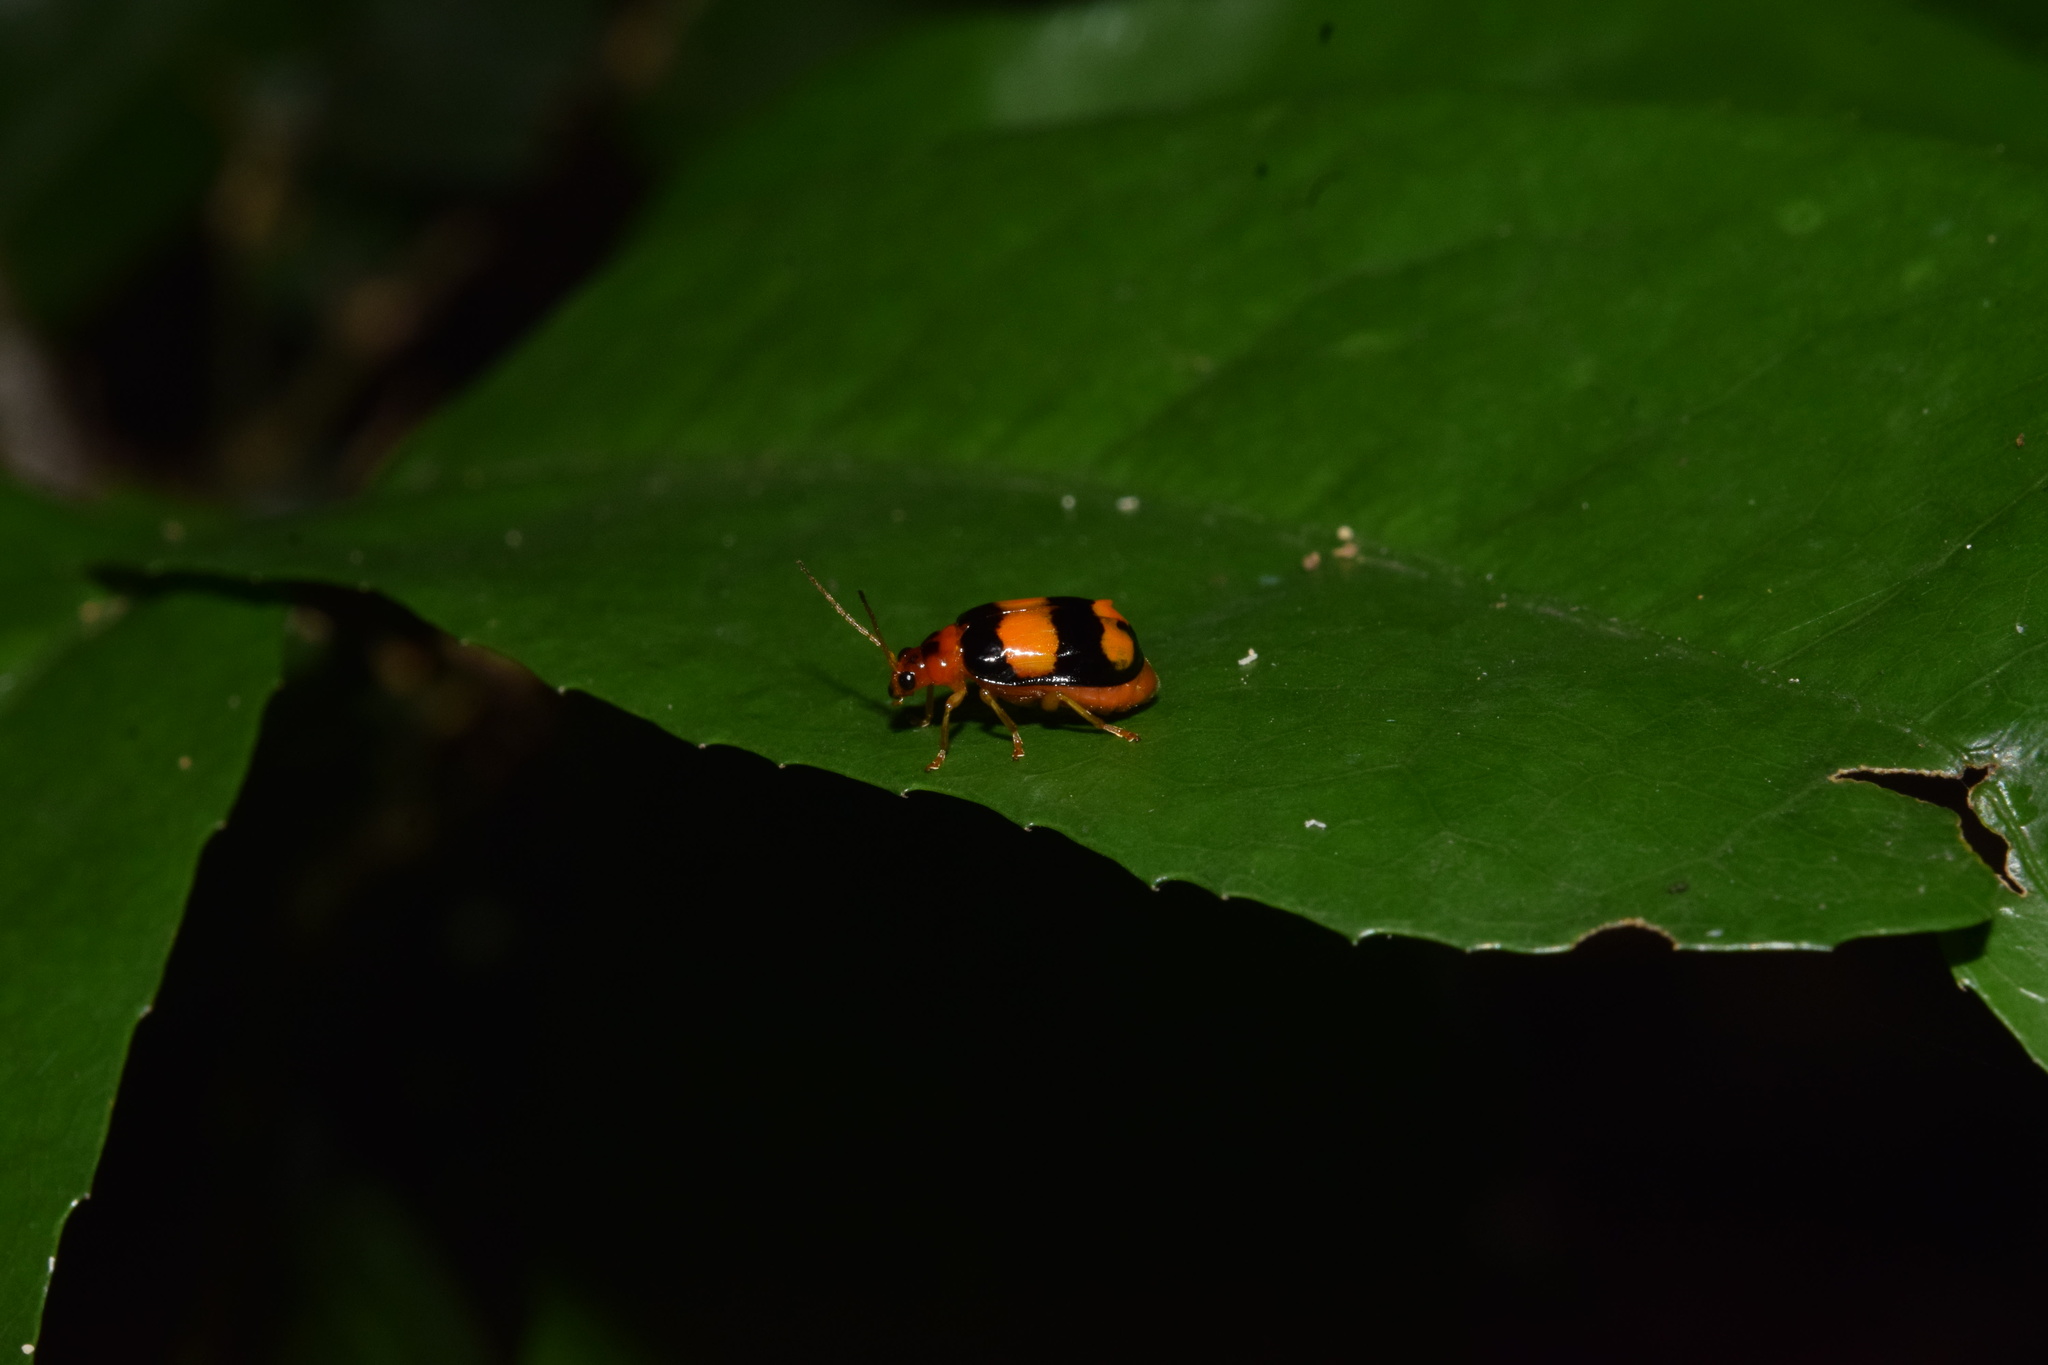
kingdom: Animalia
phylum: Arthropoda
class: Insecta
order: Coleoptera
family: Chrysomelidae
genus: Diacantha
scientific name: Diacantha
